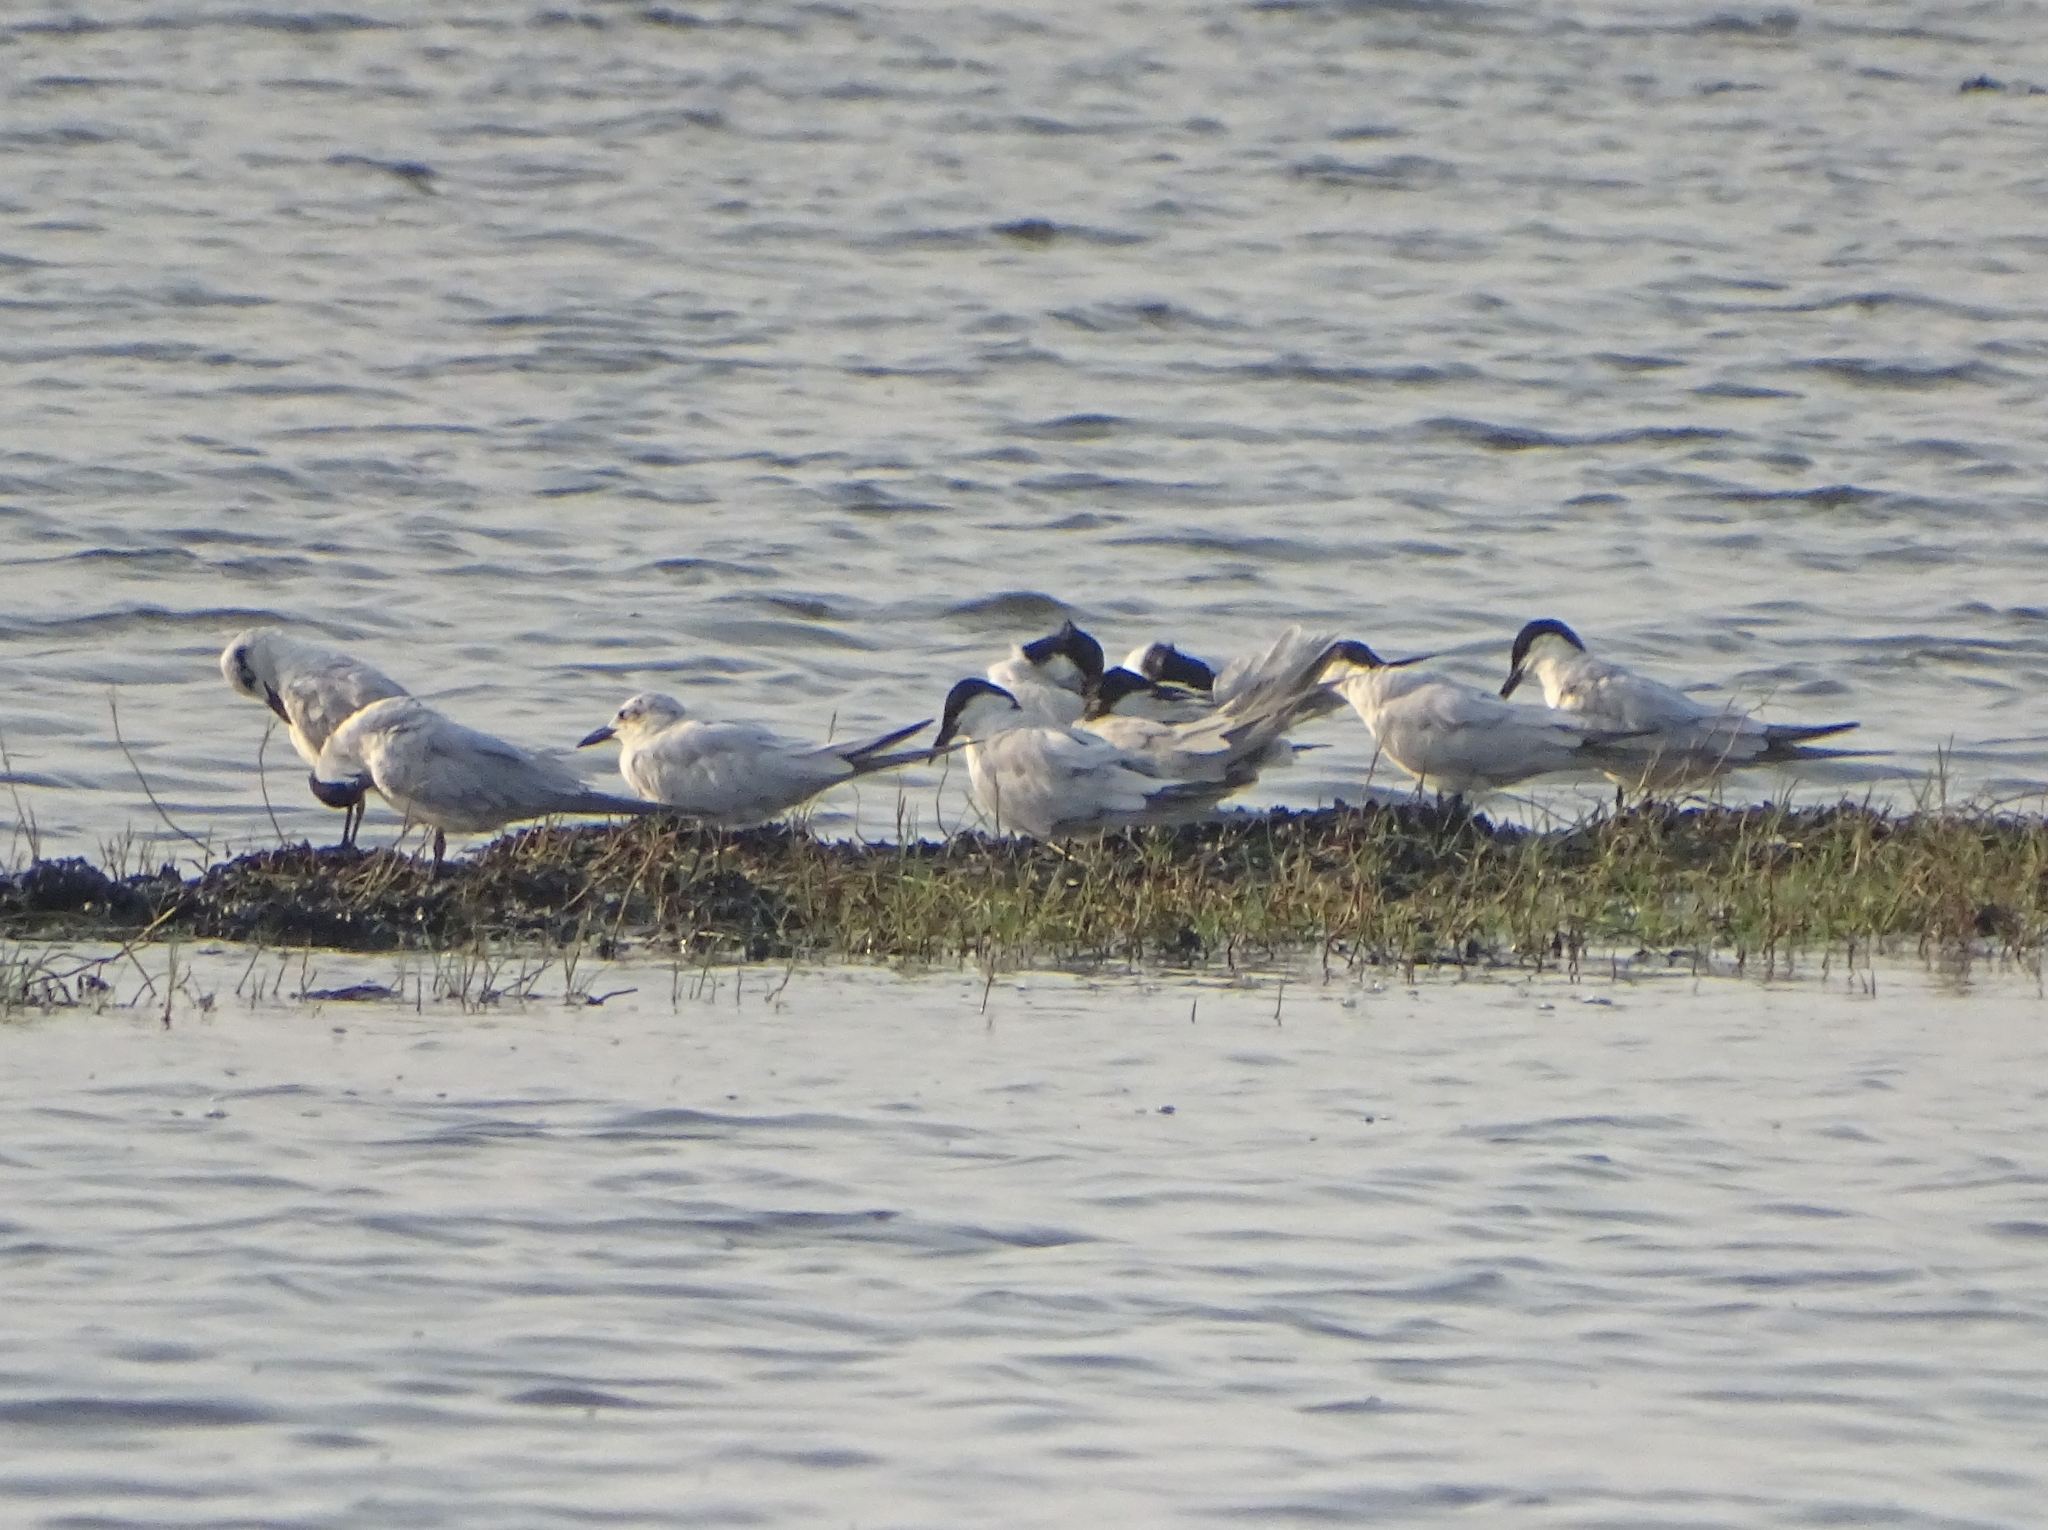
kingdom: Animalia
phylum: Chordata
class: Aves
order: Charadriiformes
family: Laridae
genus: Gelochelidon
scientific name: Gelochelidon nilotica
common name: Gull-billed tern
